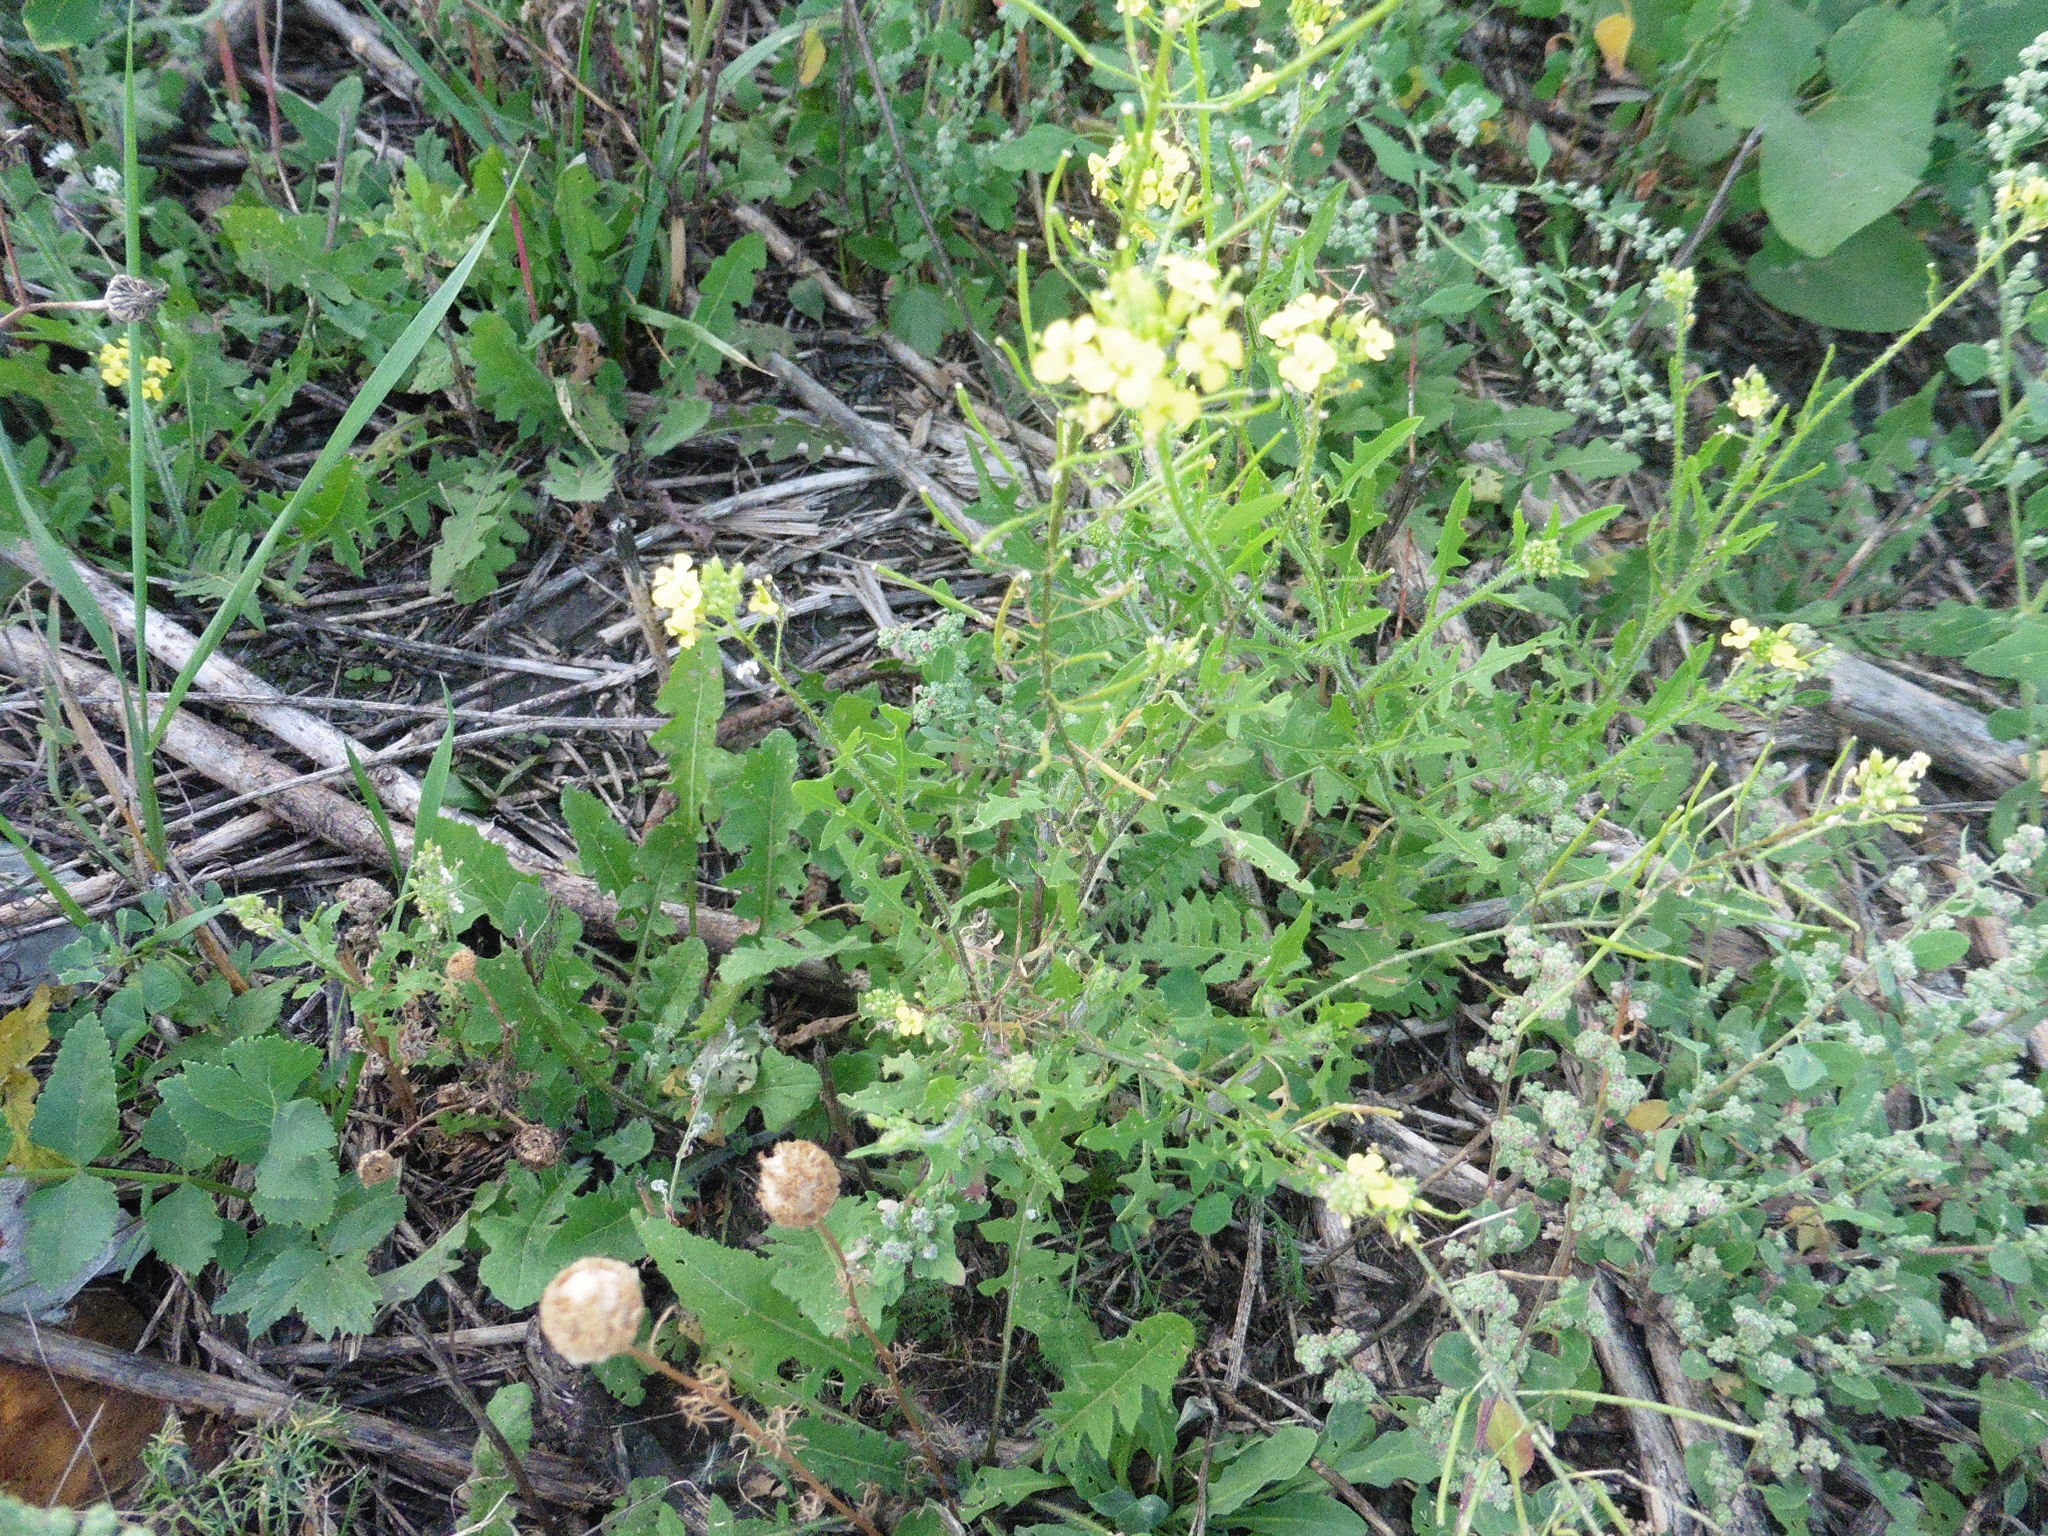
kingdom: Plantae
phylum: Tracheophyta
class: Magnoliopsida
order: Brassicales
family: Brassicaceae
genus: Sisymbrium
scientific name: Sisymbrium loeselii
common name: False london-rocket
